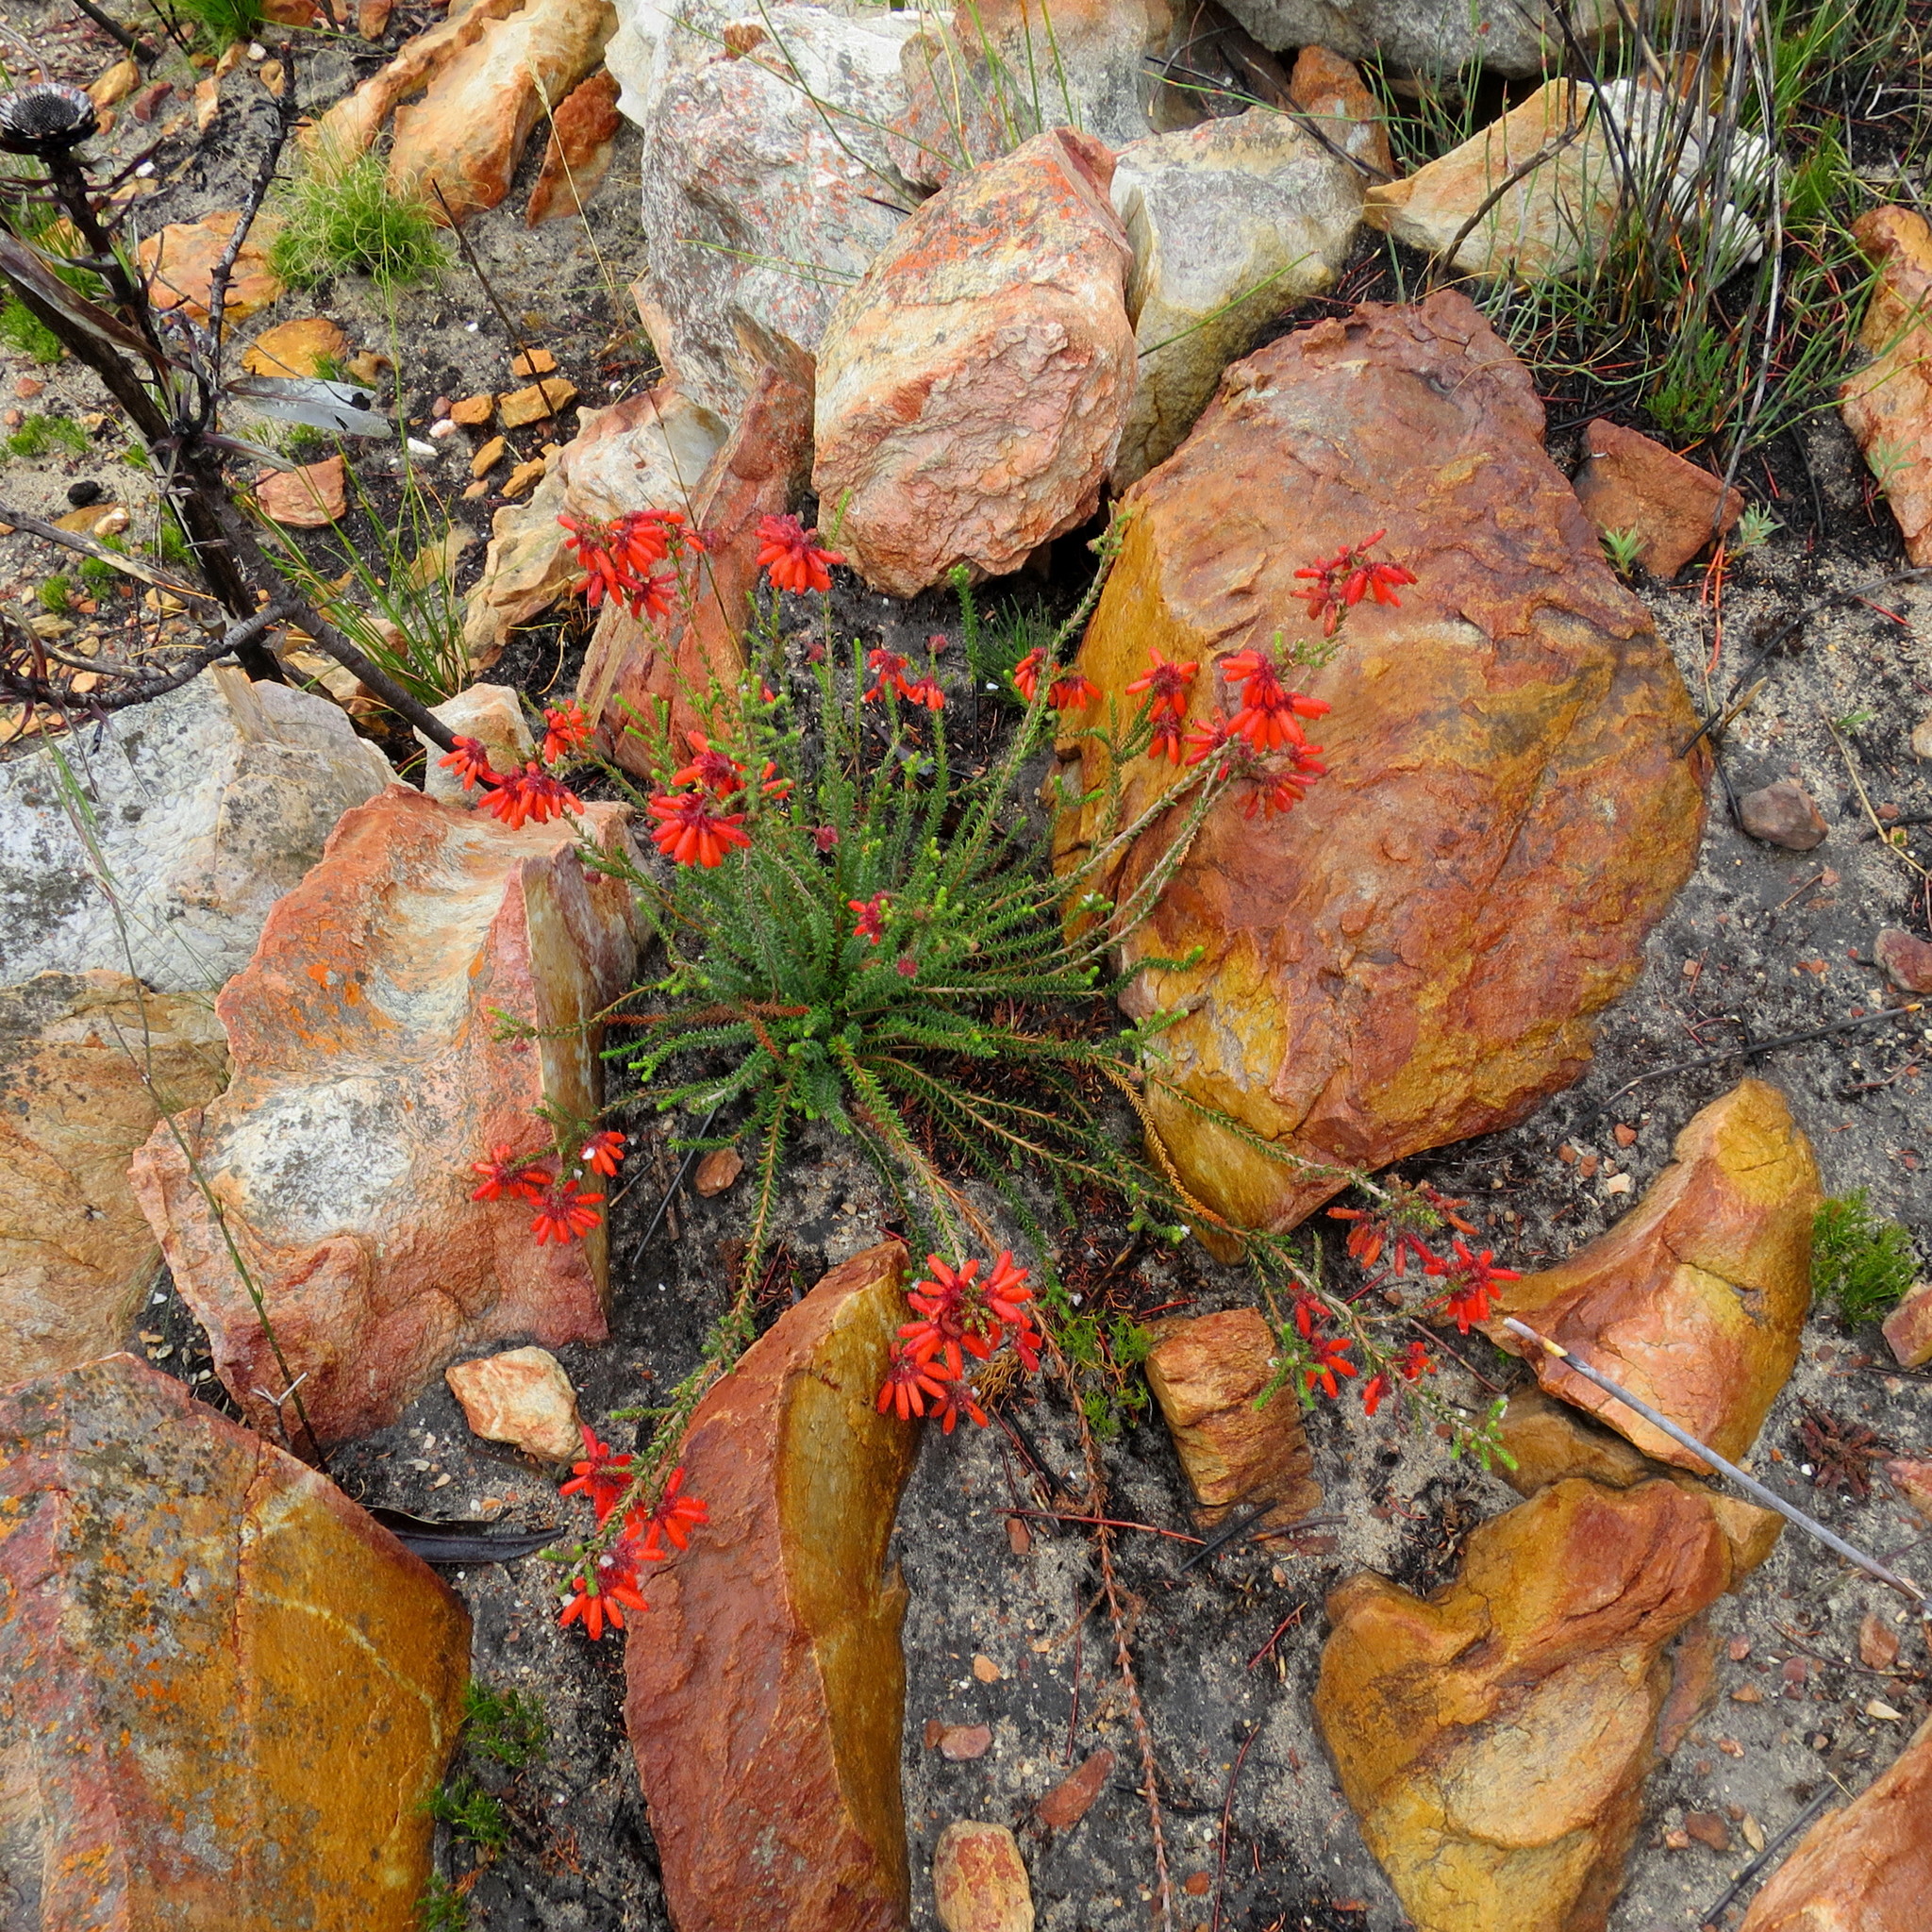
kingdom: Plantae
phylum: Tracheophyta
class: Magnoliopsida
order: Ericales
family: Ericaceae
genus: Erica
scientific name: Erica cerinthoides
